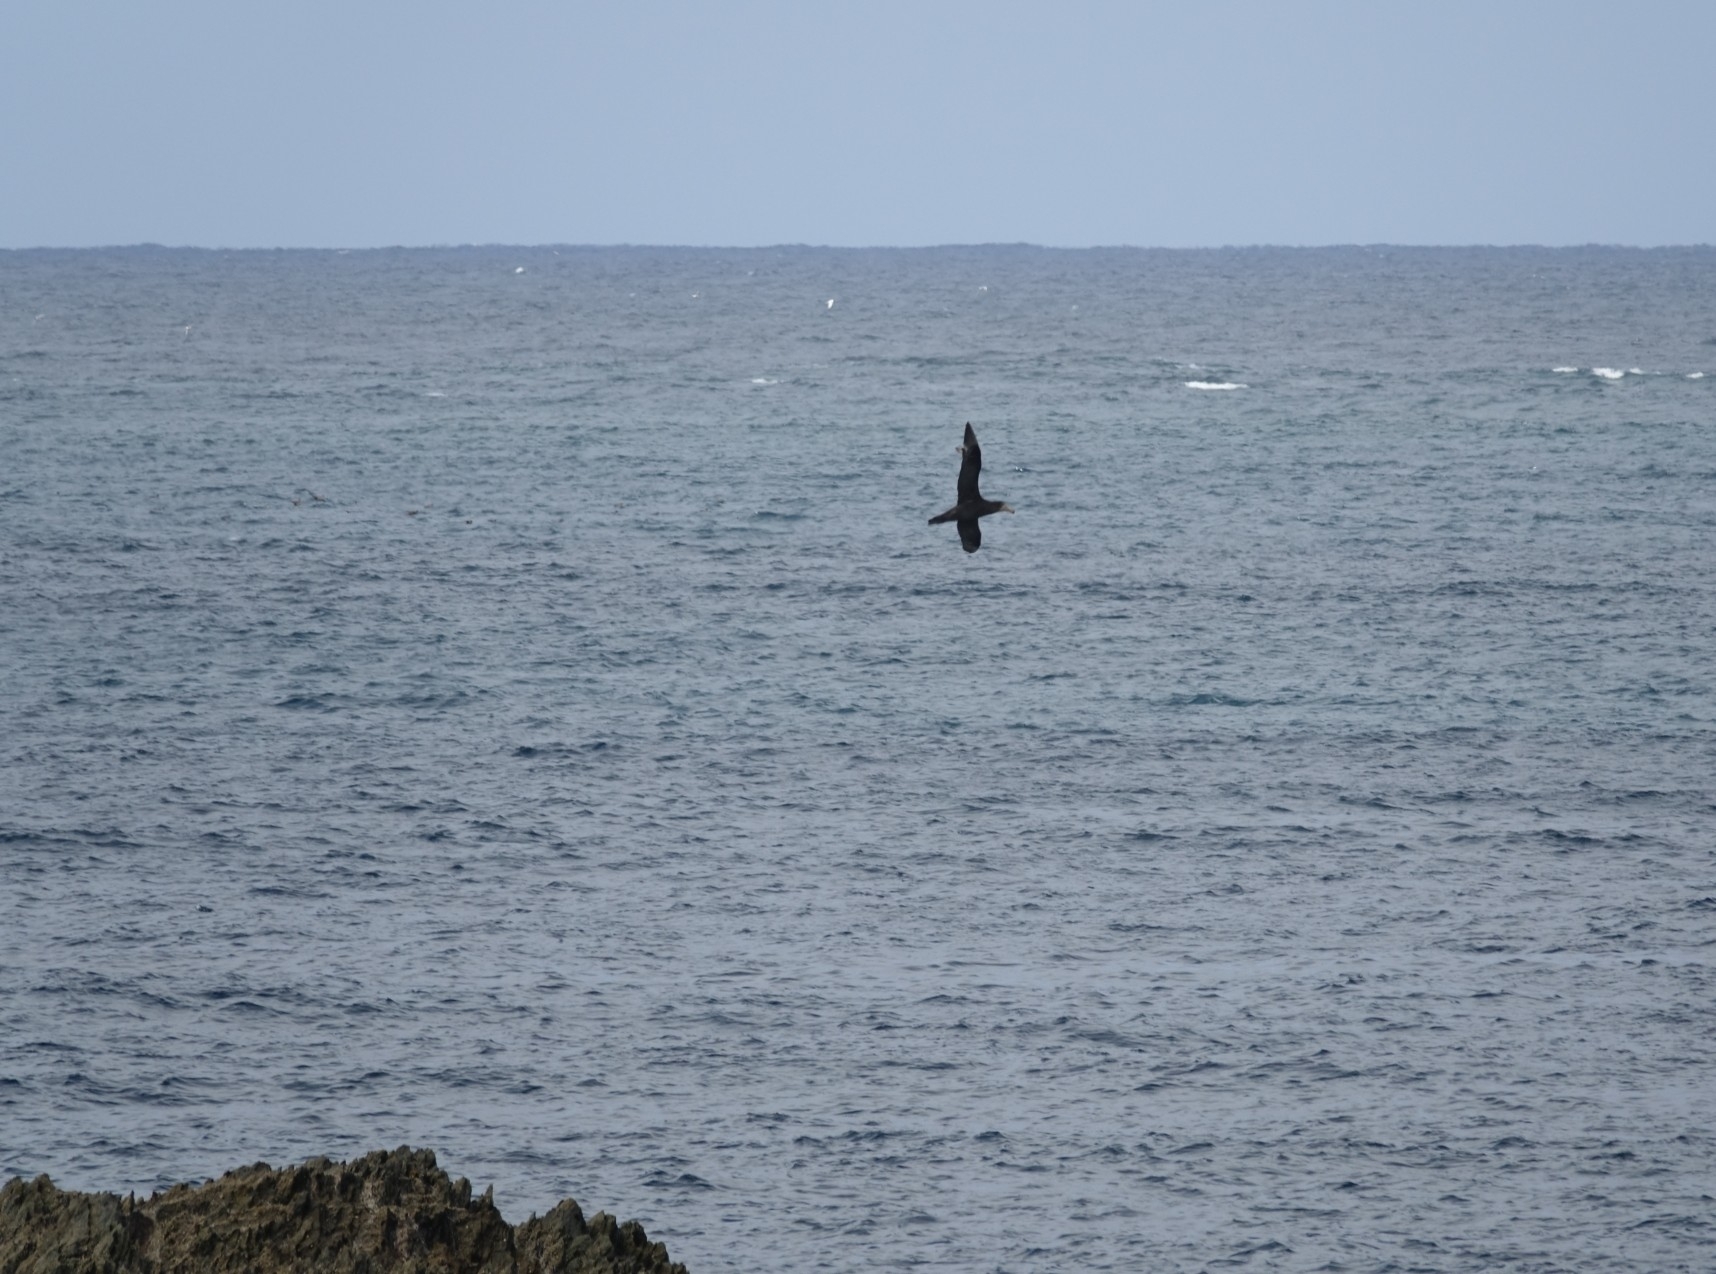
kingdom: Animalia
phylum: Chordata
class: Aves
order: Procellariiformes
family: Procellariidae
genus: Macronectes
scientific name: Macronectes halli
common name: Northern giant petrel
